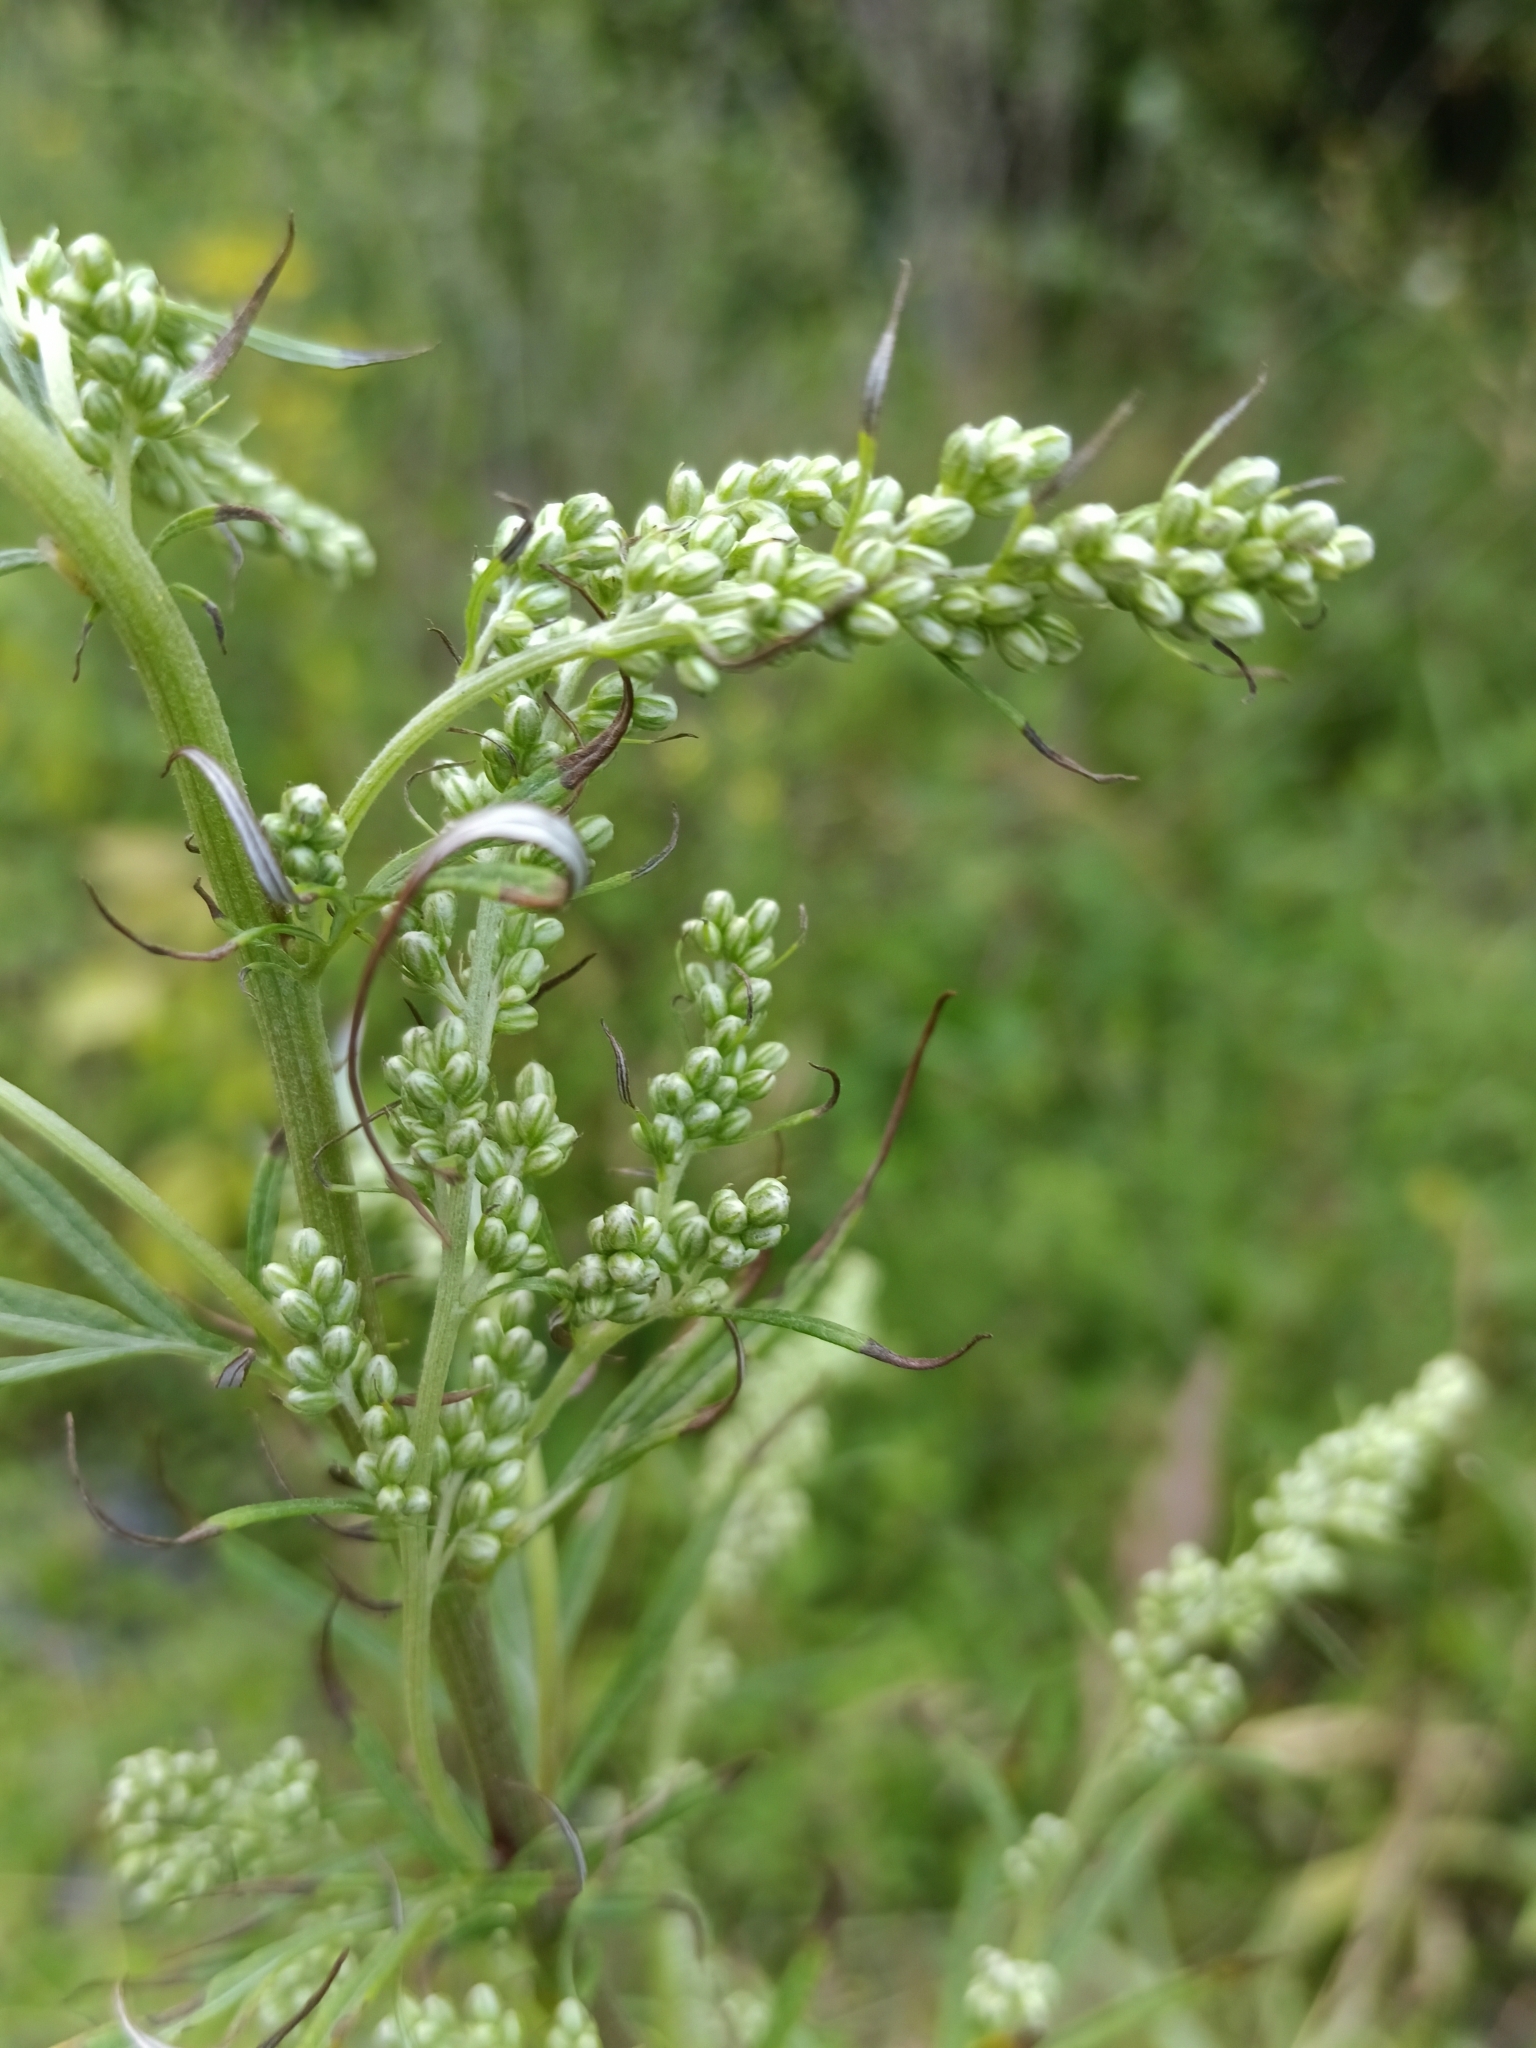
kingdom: Plantae
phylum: Tracheophyta
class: Magnoliopsida
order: Asterales
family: Asteraceae
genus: Artemisia
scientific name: Artemisia vulgaris
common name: Mugwort
